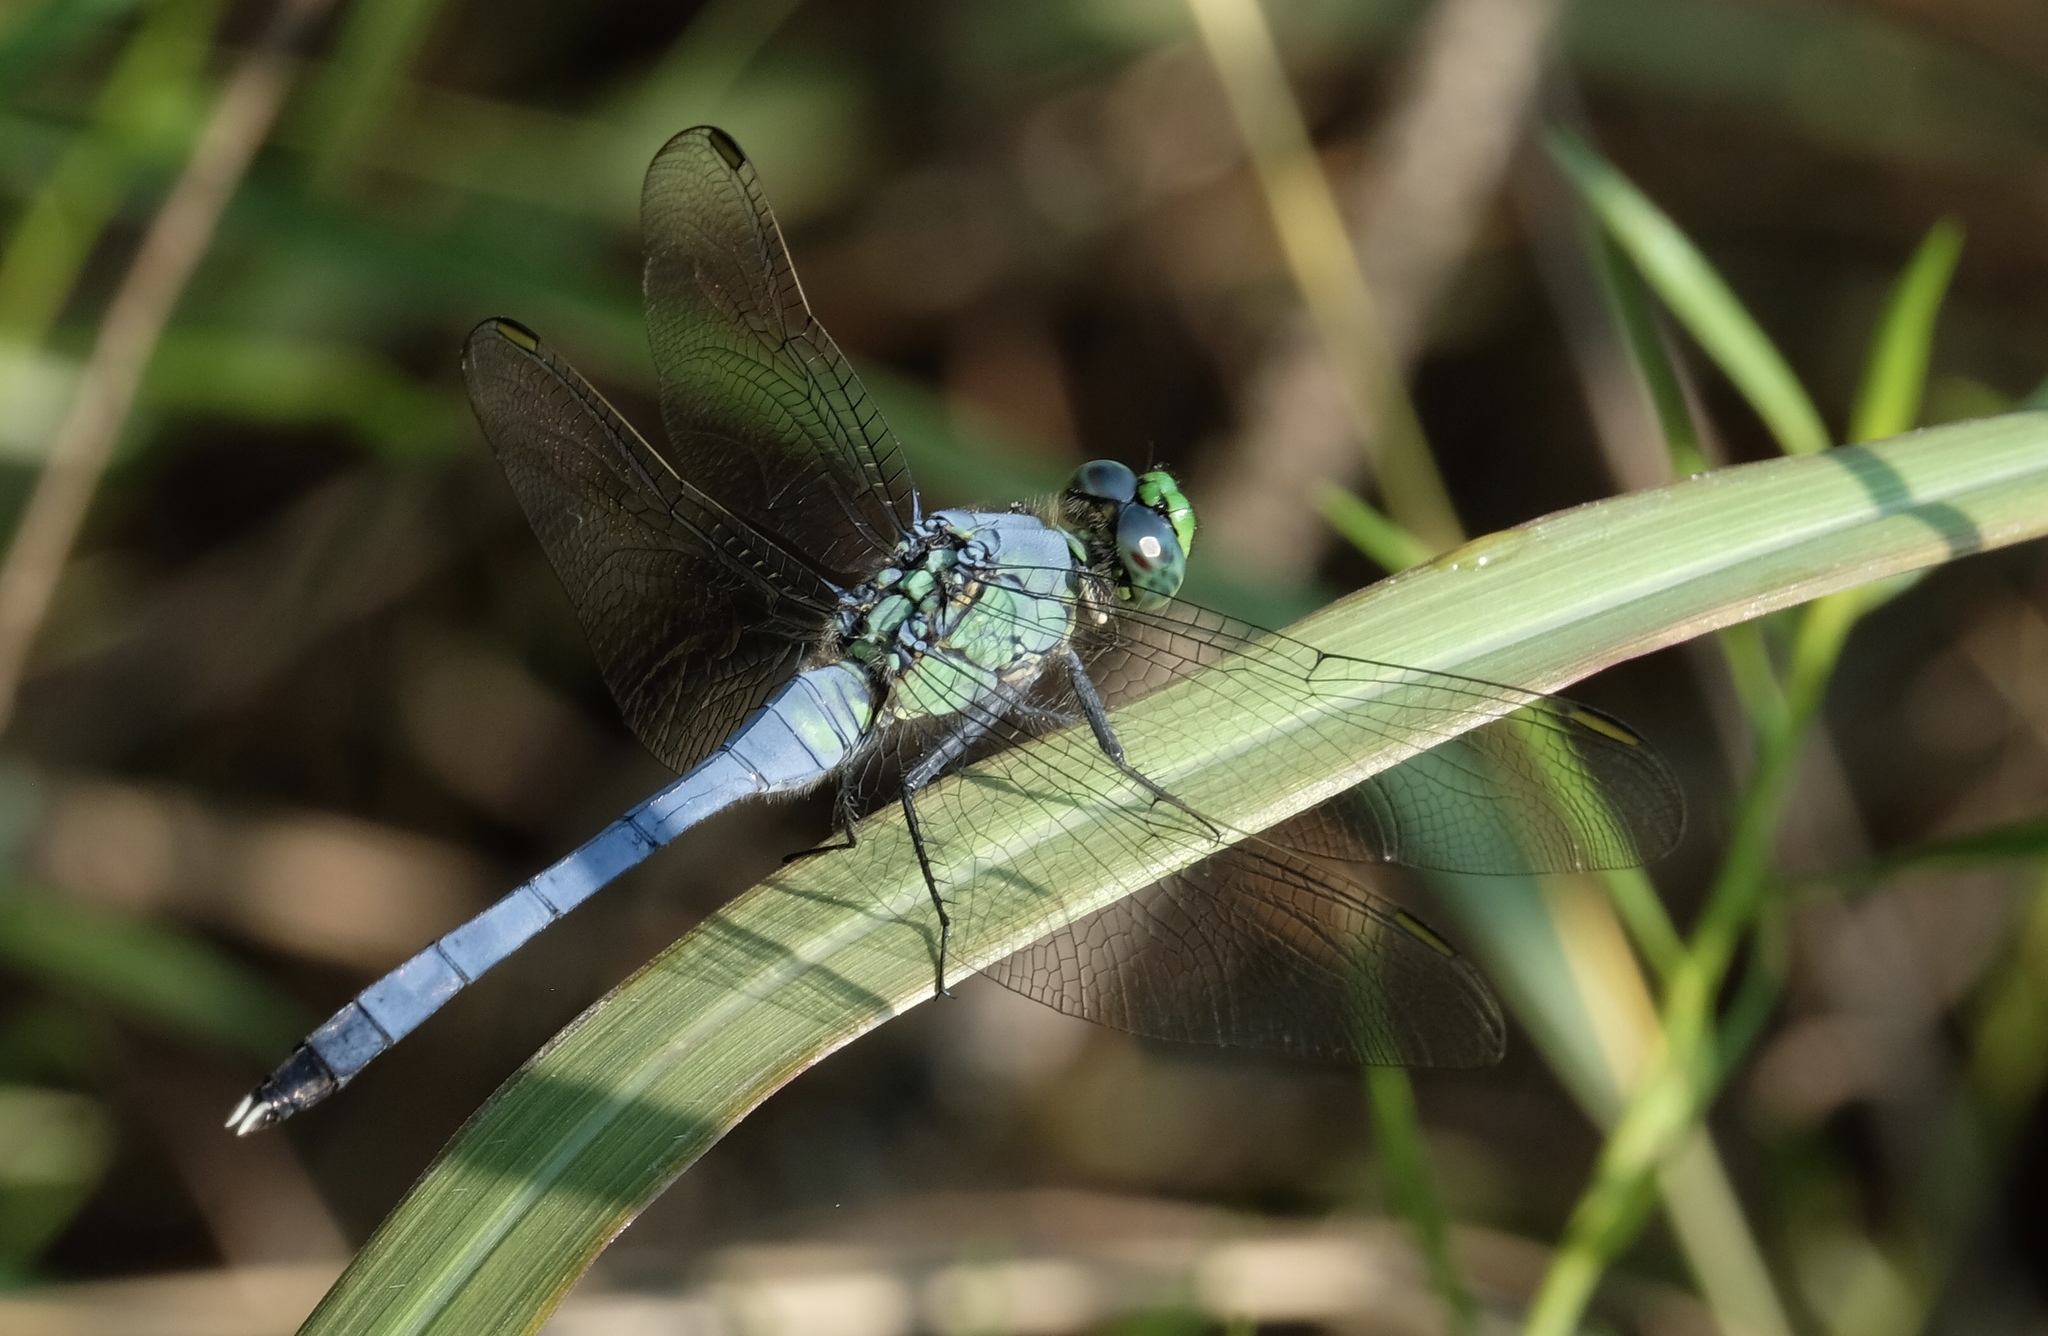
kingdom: Animalia
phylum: Arthropoda
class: Insecta
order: Odonata
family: Libellulidae
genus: Erythemis
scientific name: Erythemis simplicicollis
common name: Eastern pondhawk
